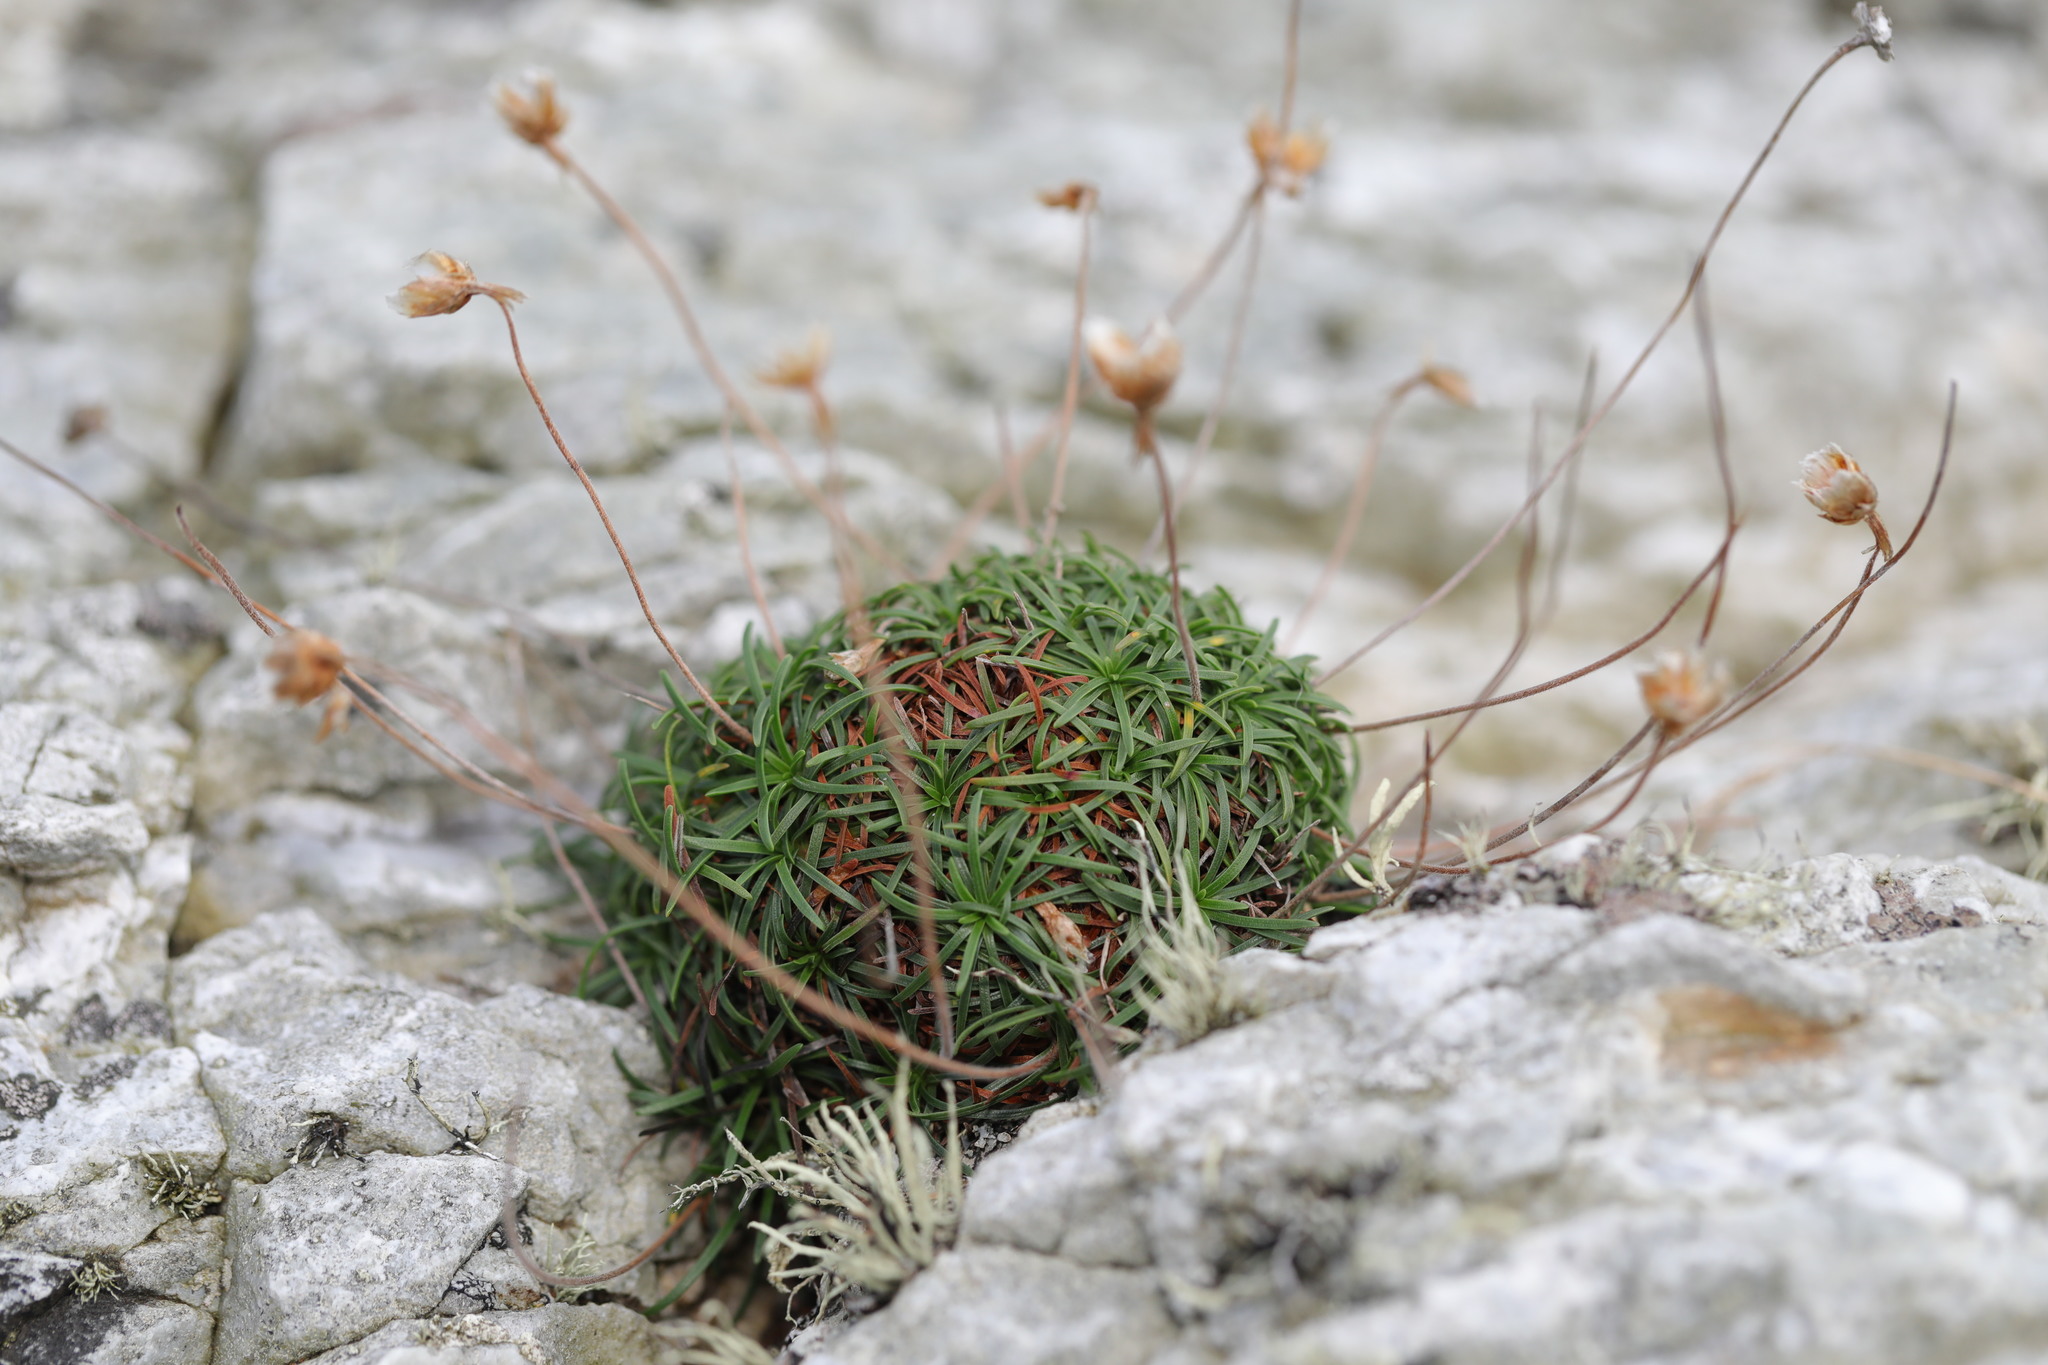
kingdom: Plantae
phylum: Tracheophyta
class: Magnoliopsida
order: Caryophyllales
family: Plumbaginaceae
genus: Armeria
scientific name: Armeria maritima
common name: Thrift
